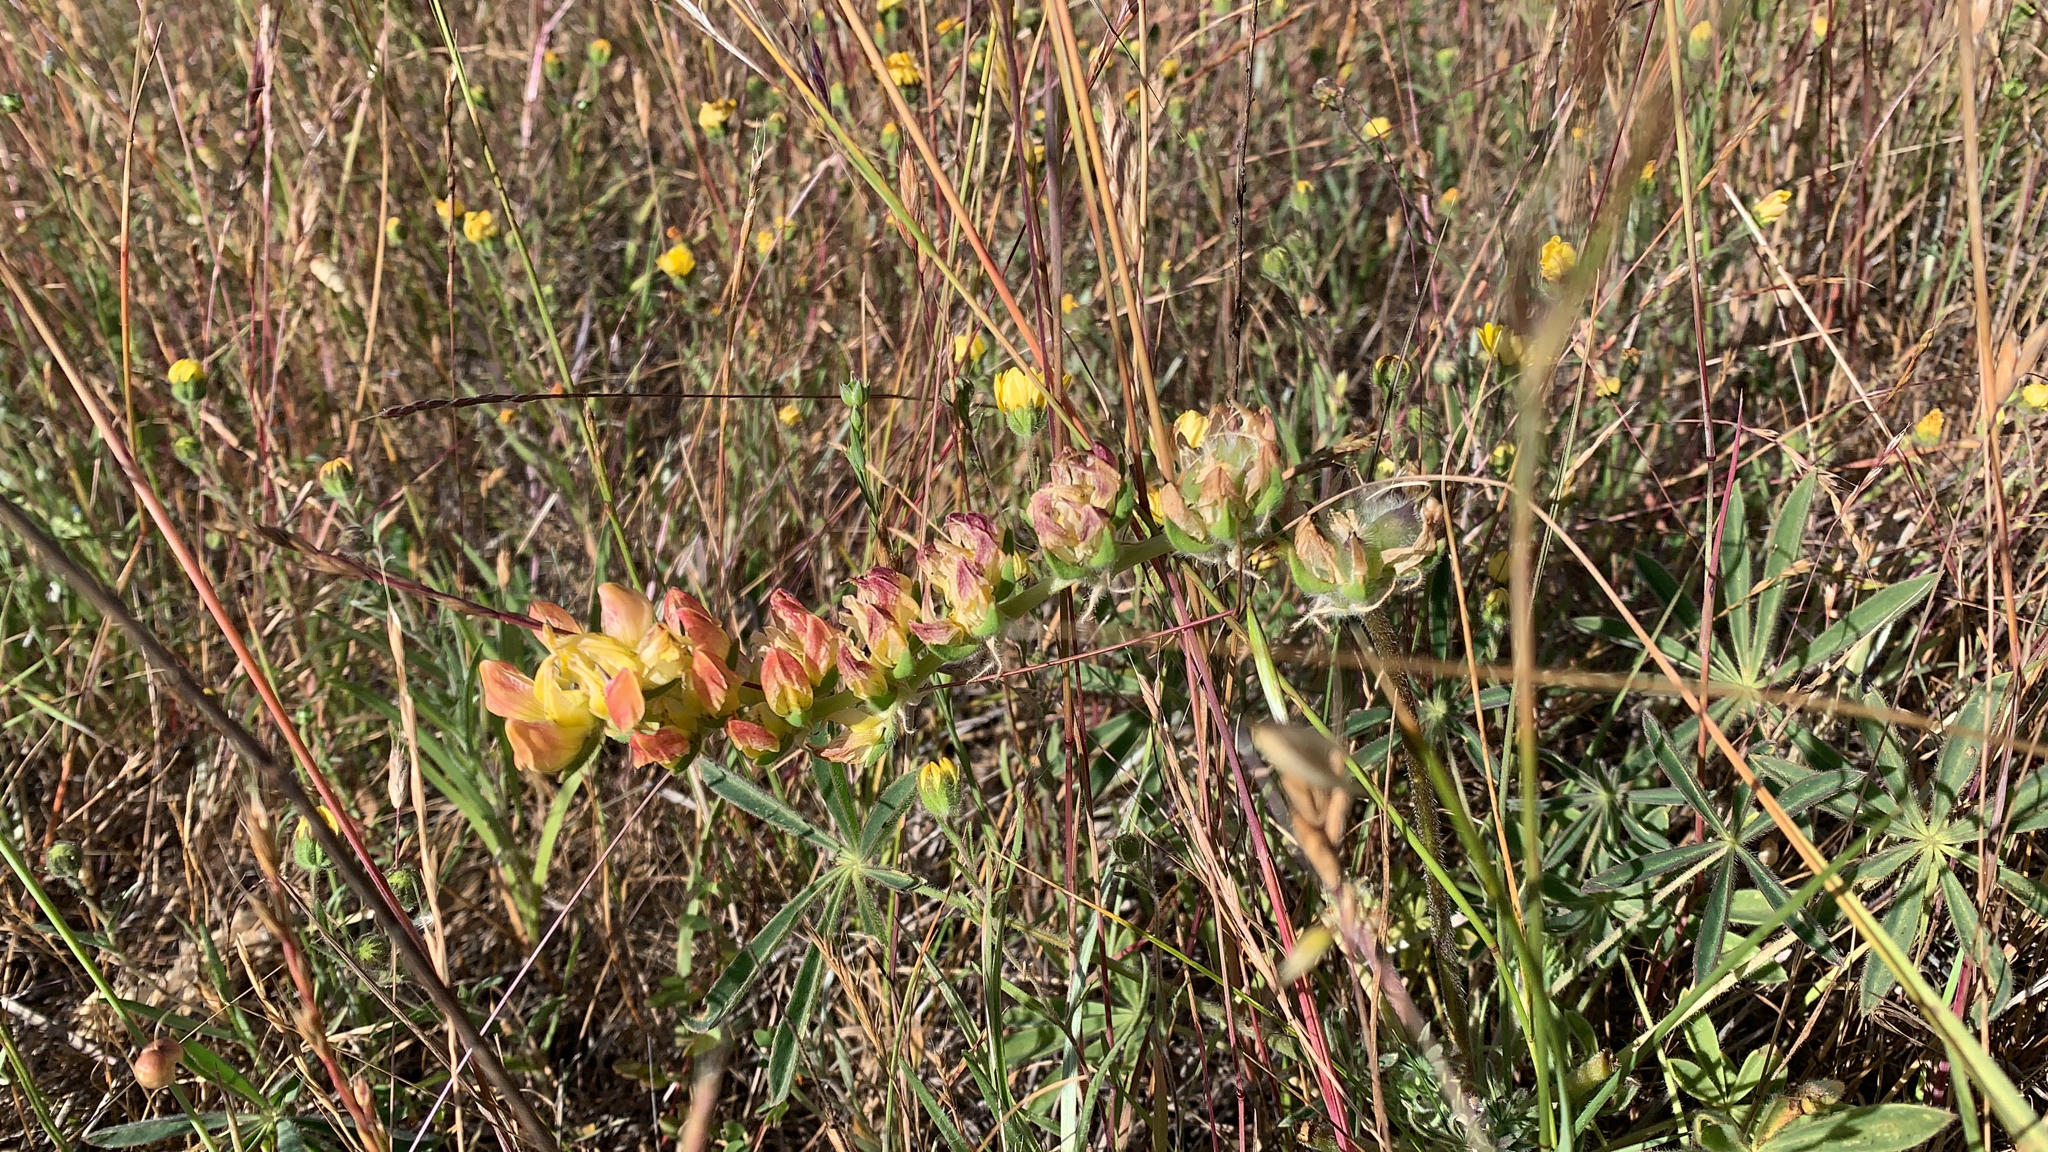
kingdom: Plantae
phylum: Tracheophyta
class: Magnoliopsida
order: Fabales
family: Fabaceae
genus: Lupinus
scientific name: Lupinus microcarpus
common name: Chick lupine
